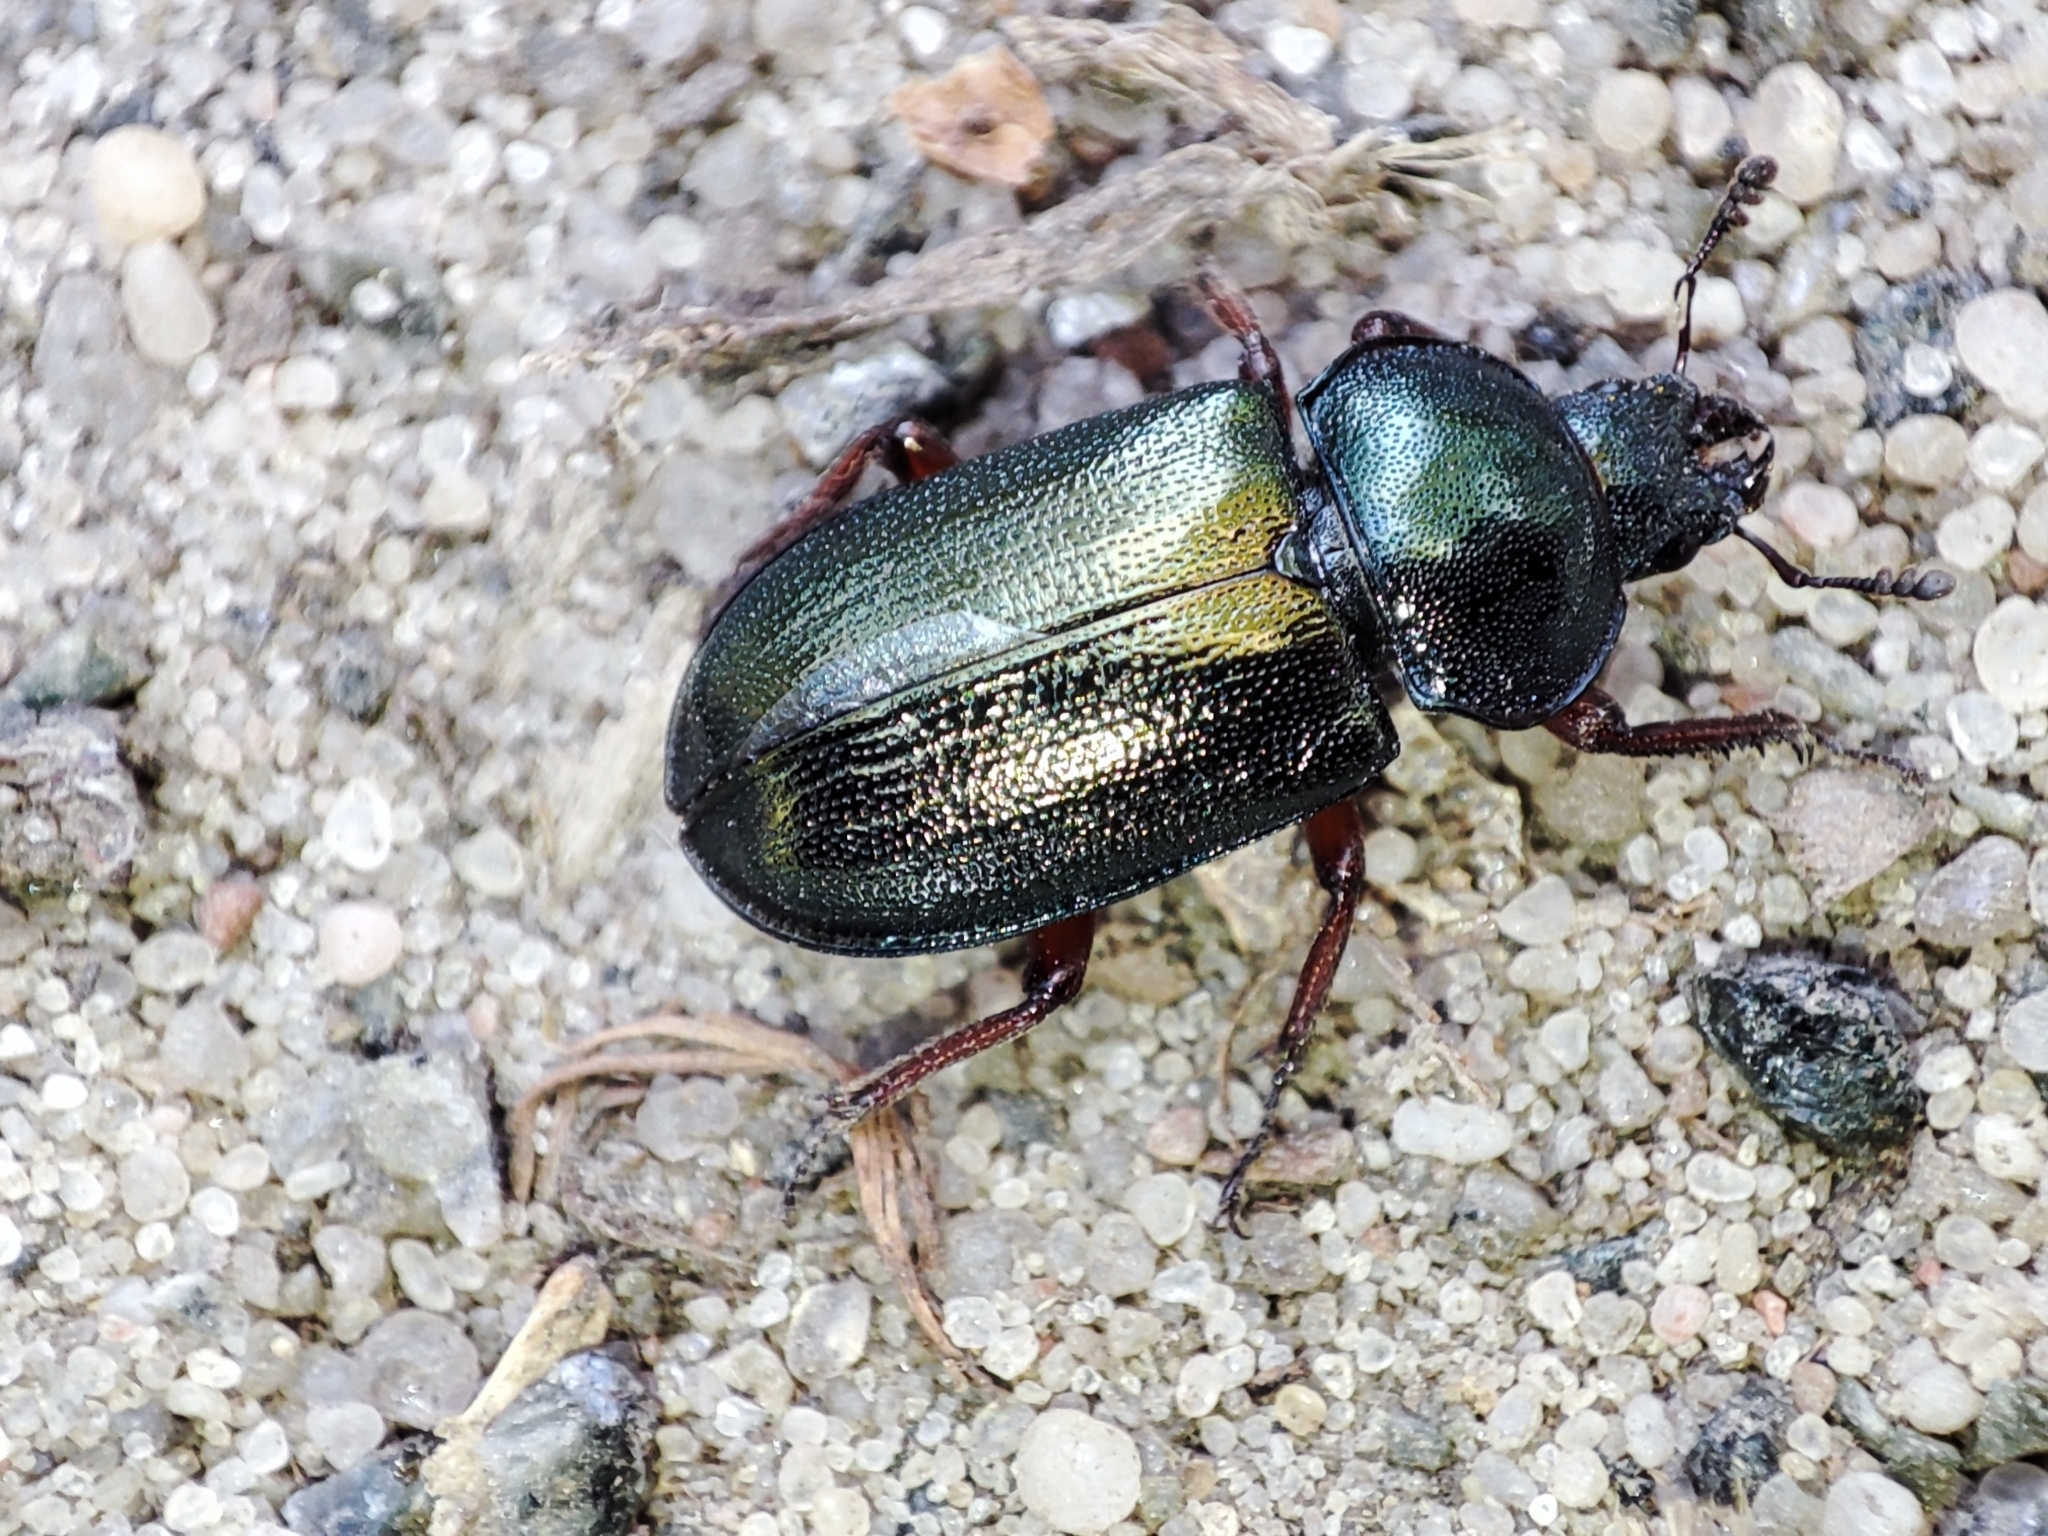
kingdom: Animalia
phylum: Arthropoda
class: Insecta
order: Coleoptera
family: Lucanidae
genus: Platycerus
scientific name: Platycerus caraboides
